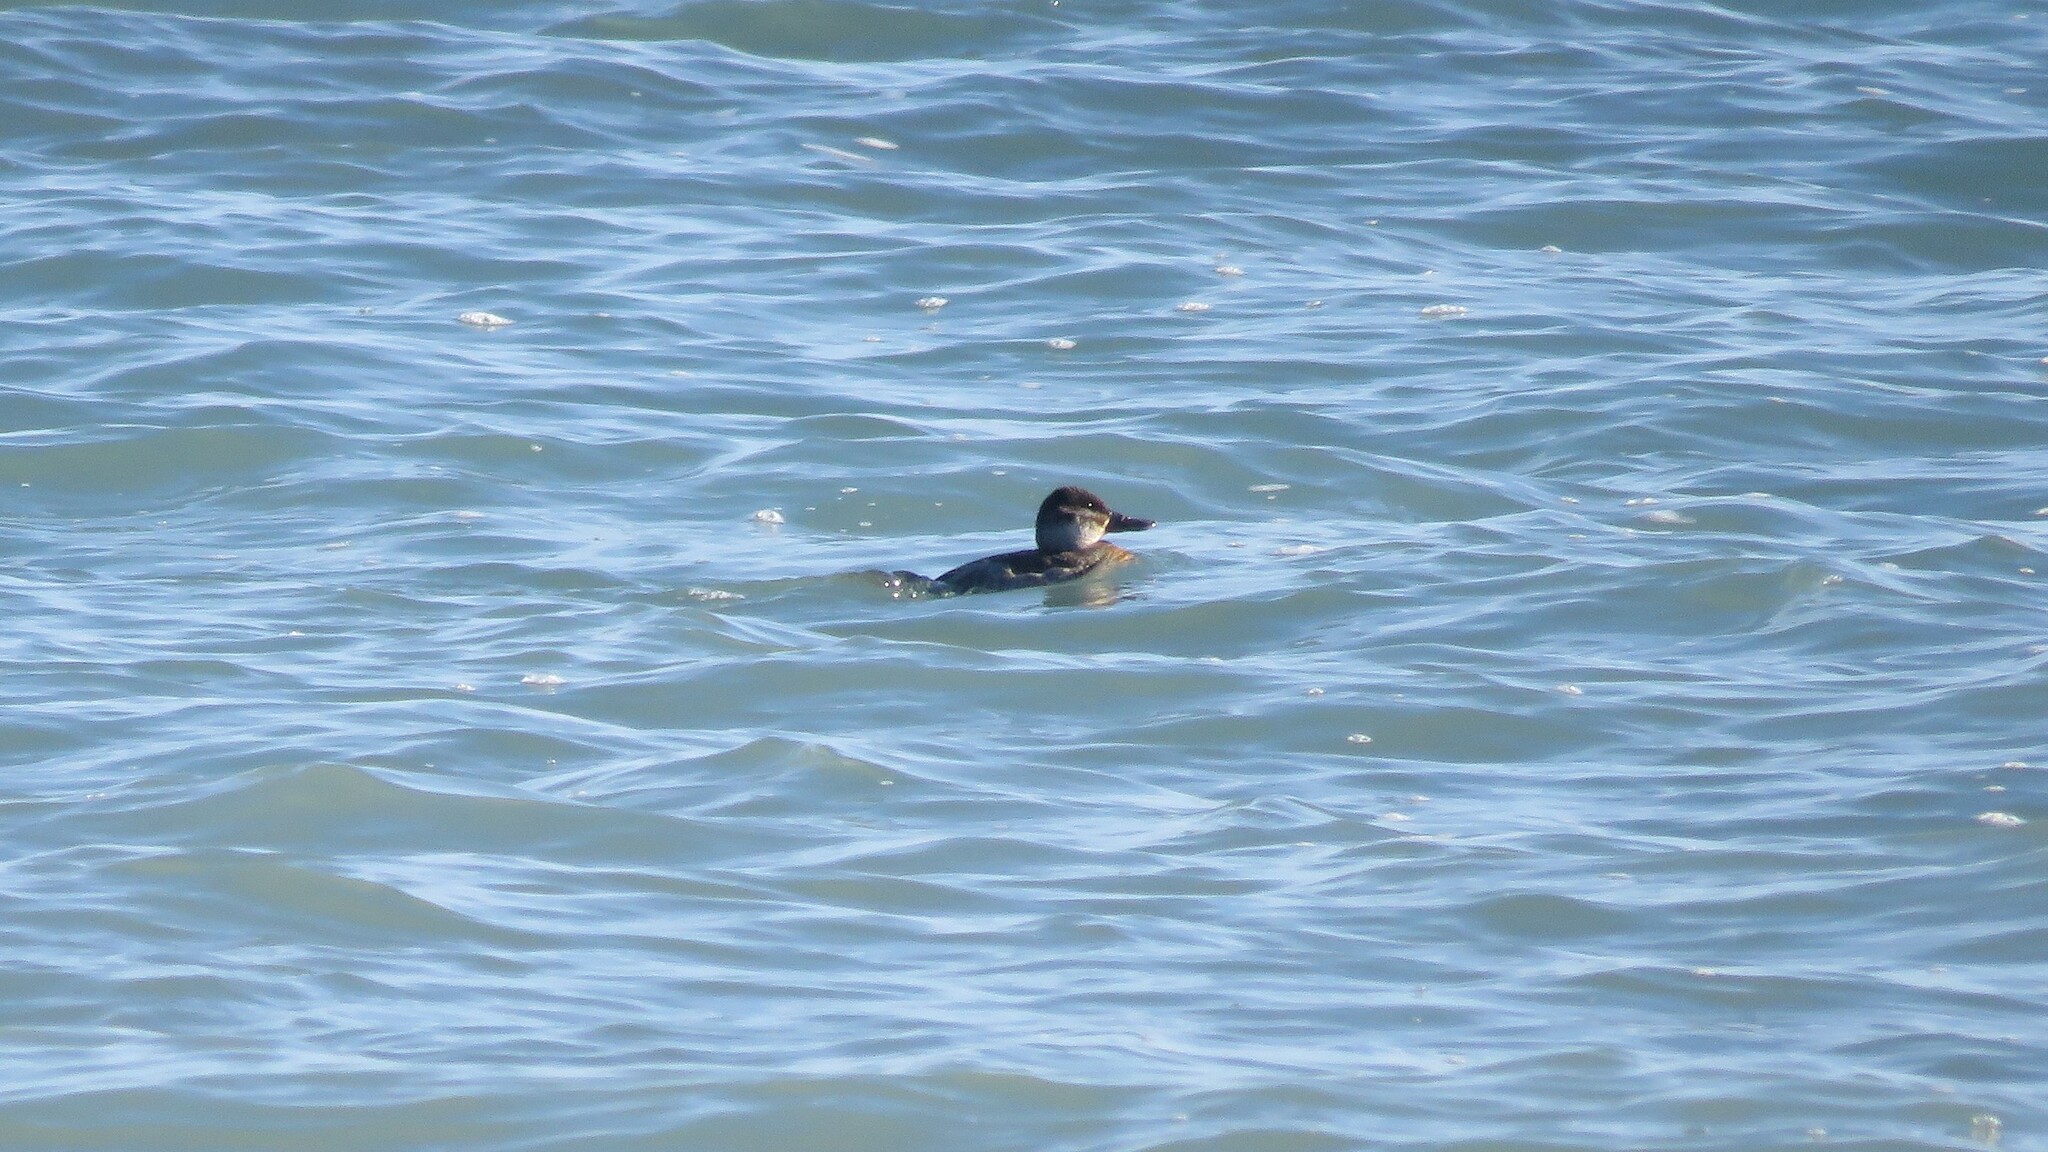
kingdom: Animalia
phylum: Chordata
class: Aves
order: Anseriformes
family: Anatidae
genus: Oxyura
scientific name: Oxyura jamaicensis
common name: Ruddy duck
